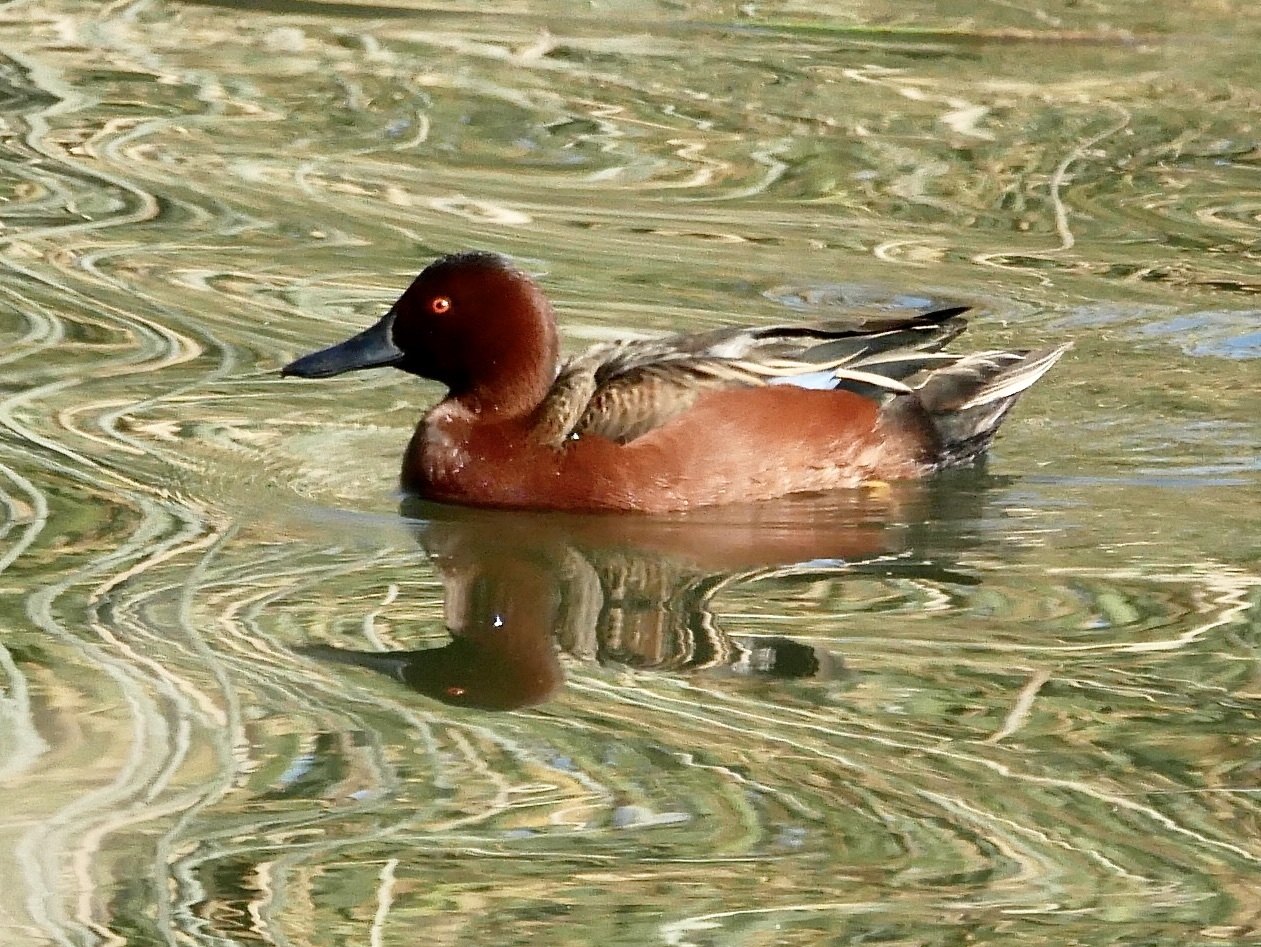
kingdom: Animalia
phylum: Chordata
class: Aves
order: Anseriformes
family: Anatidae
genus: Spatula
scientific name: Spatula cyanoptera
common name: Cinnamon teal
